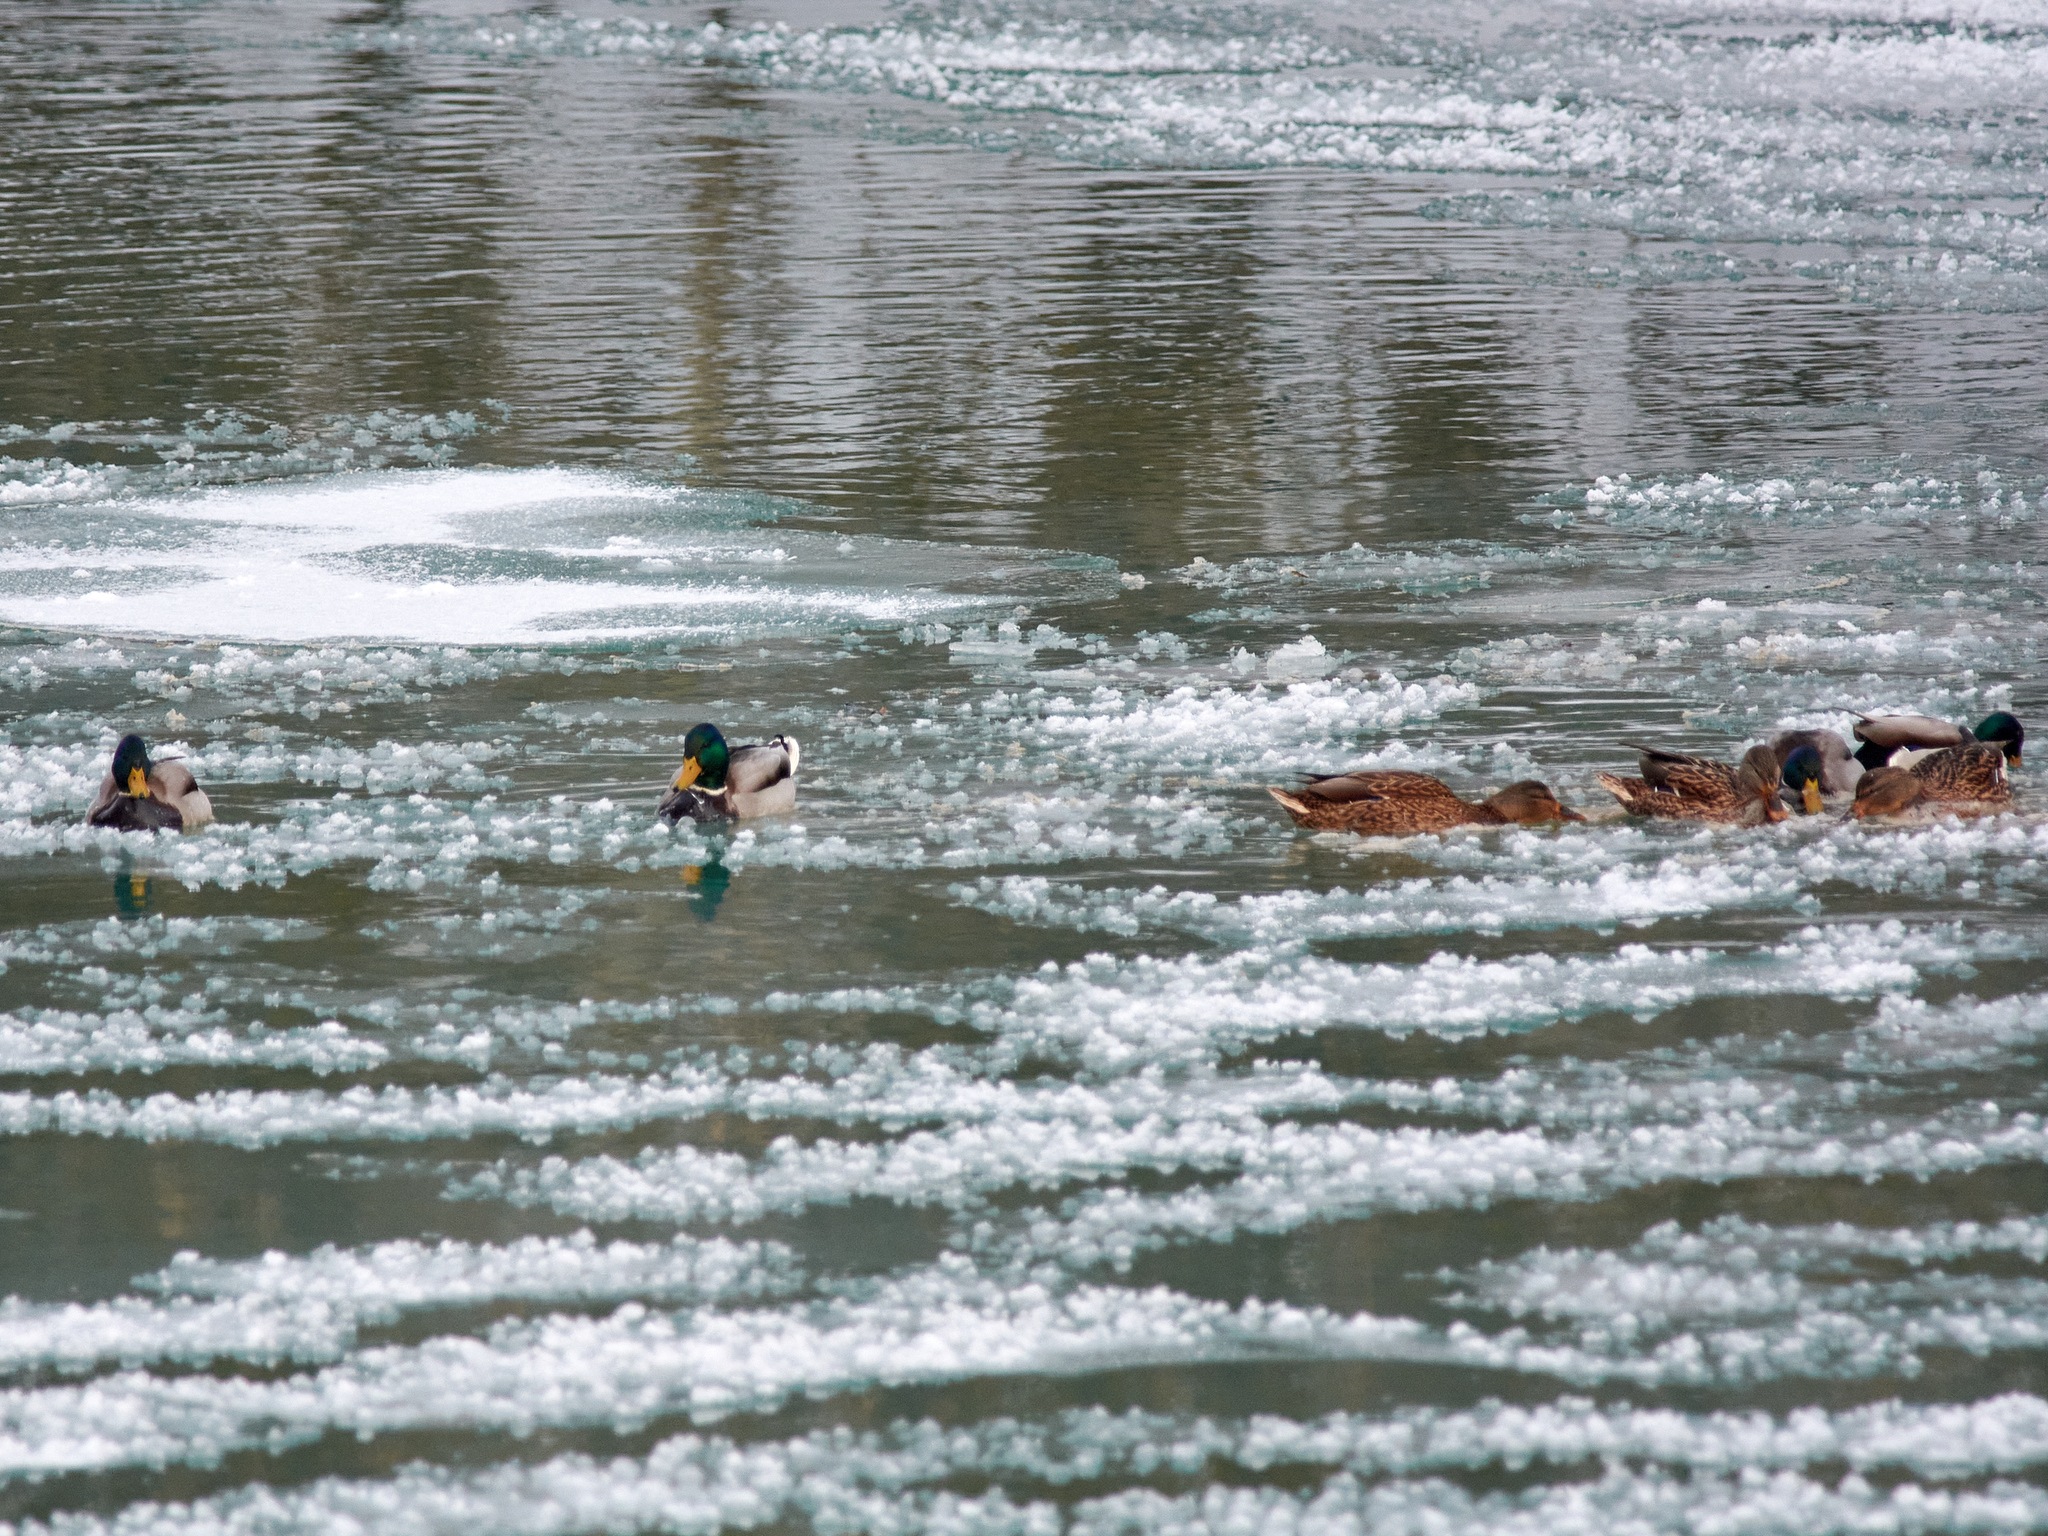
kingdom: Animalia
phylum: Chordata
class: Aves
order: Anseriformes
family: Anatidae
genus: Anas
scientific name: Anas platyrhynchos
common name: Mallard
